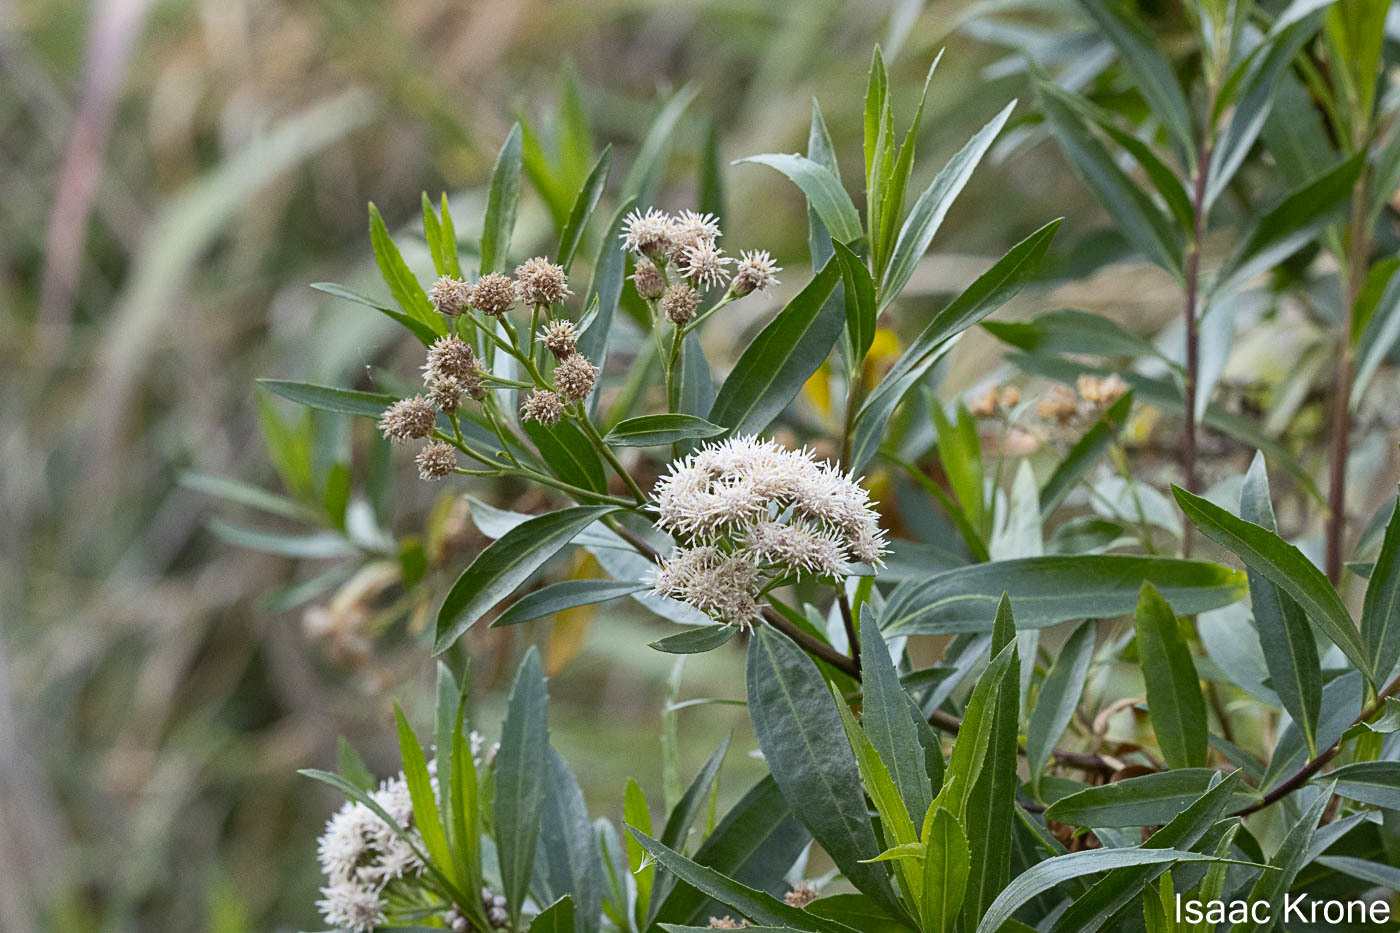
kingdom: Plantae
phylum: Tracheophyta
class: Magnoliopsida
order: Asterales
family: Asteraceae
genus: Baccharis
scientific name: Baccharis salicifolia
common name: Sticky baccharis
